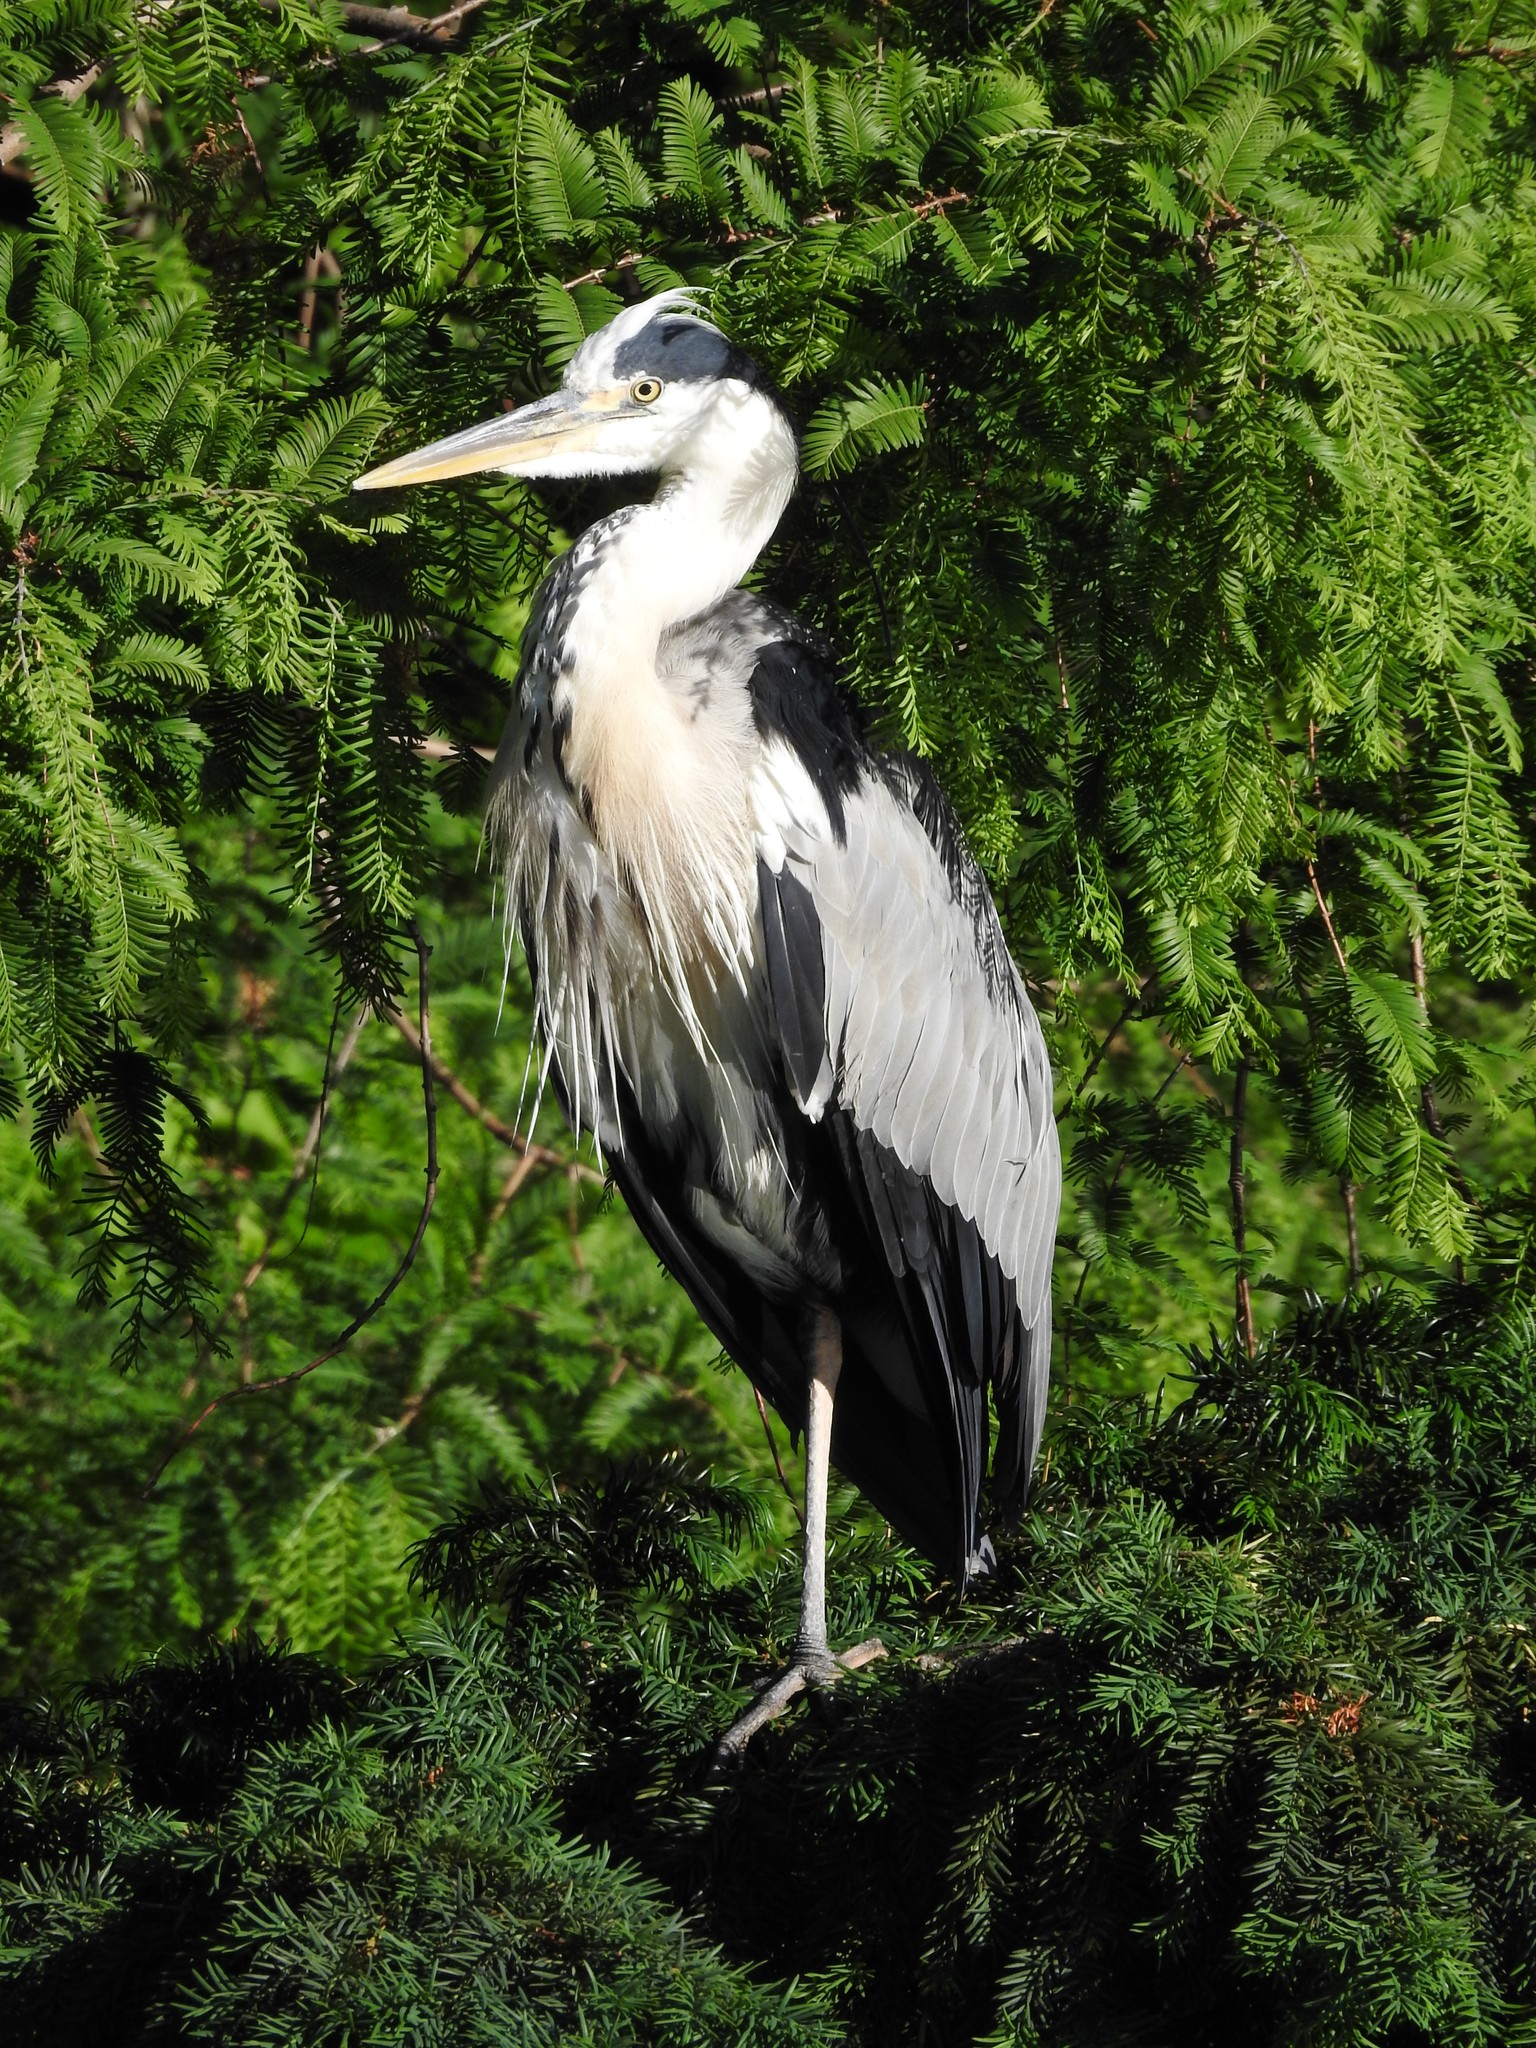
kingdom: Animalia
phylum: Chordata
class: Aves
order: Pelecaniformes
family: Ardeidae
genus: Ardea
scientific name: Ardea cinerea
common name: Grey heron
